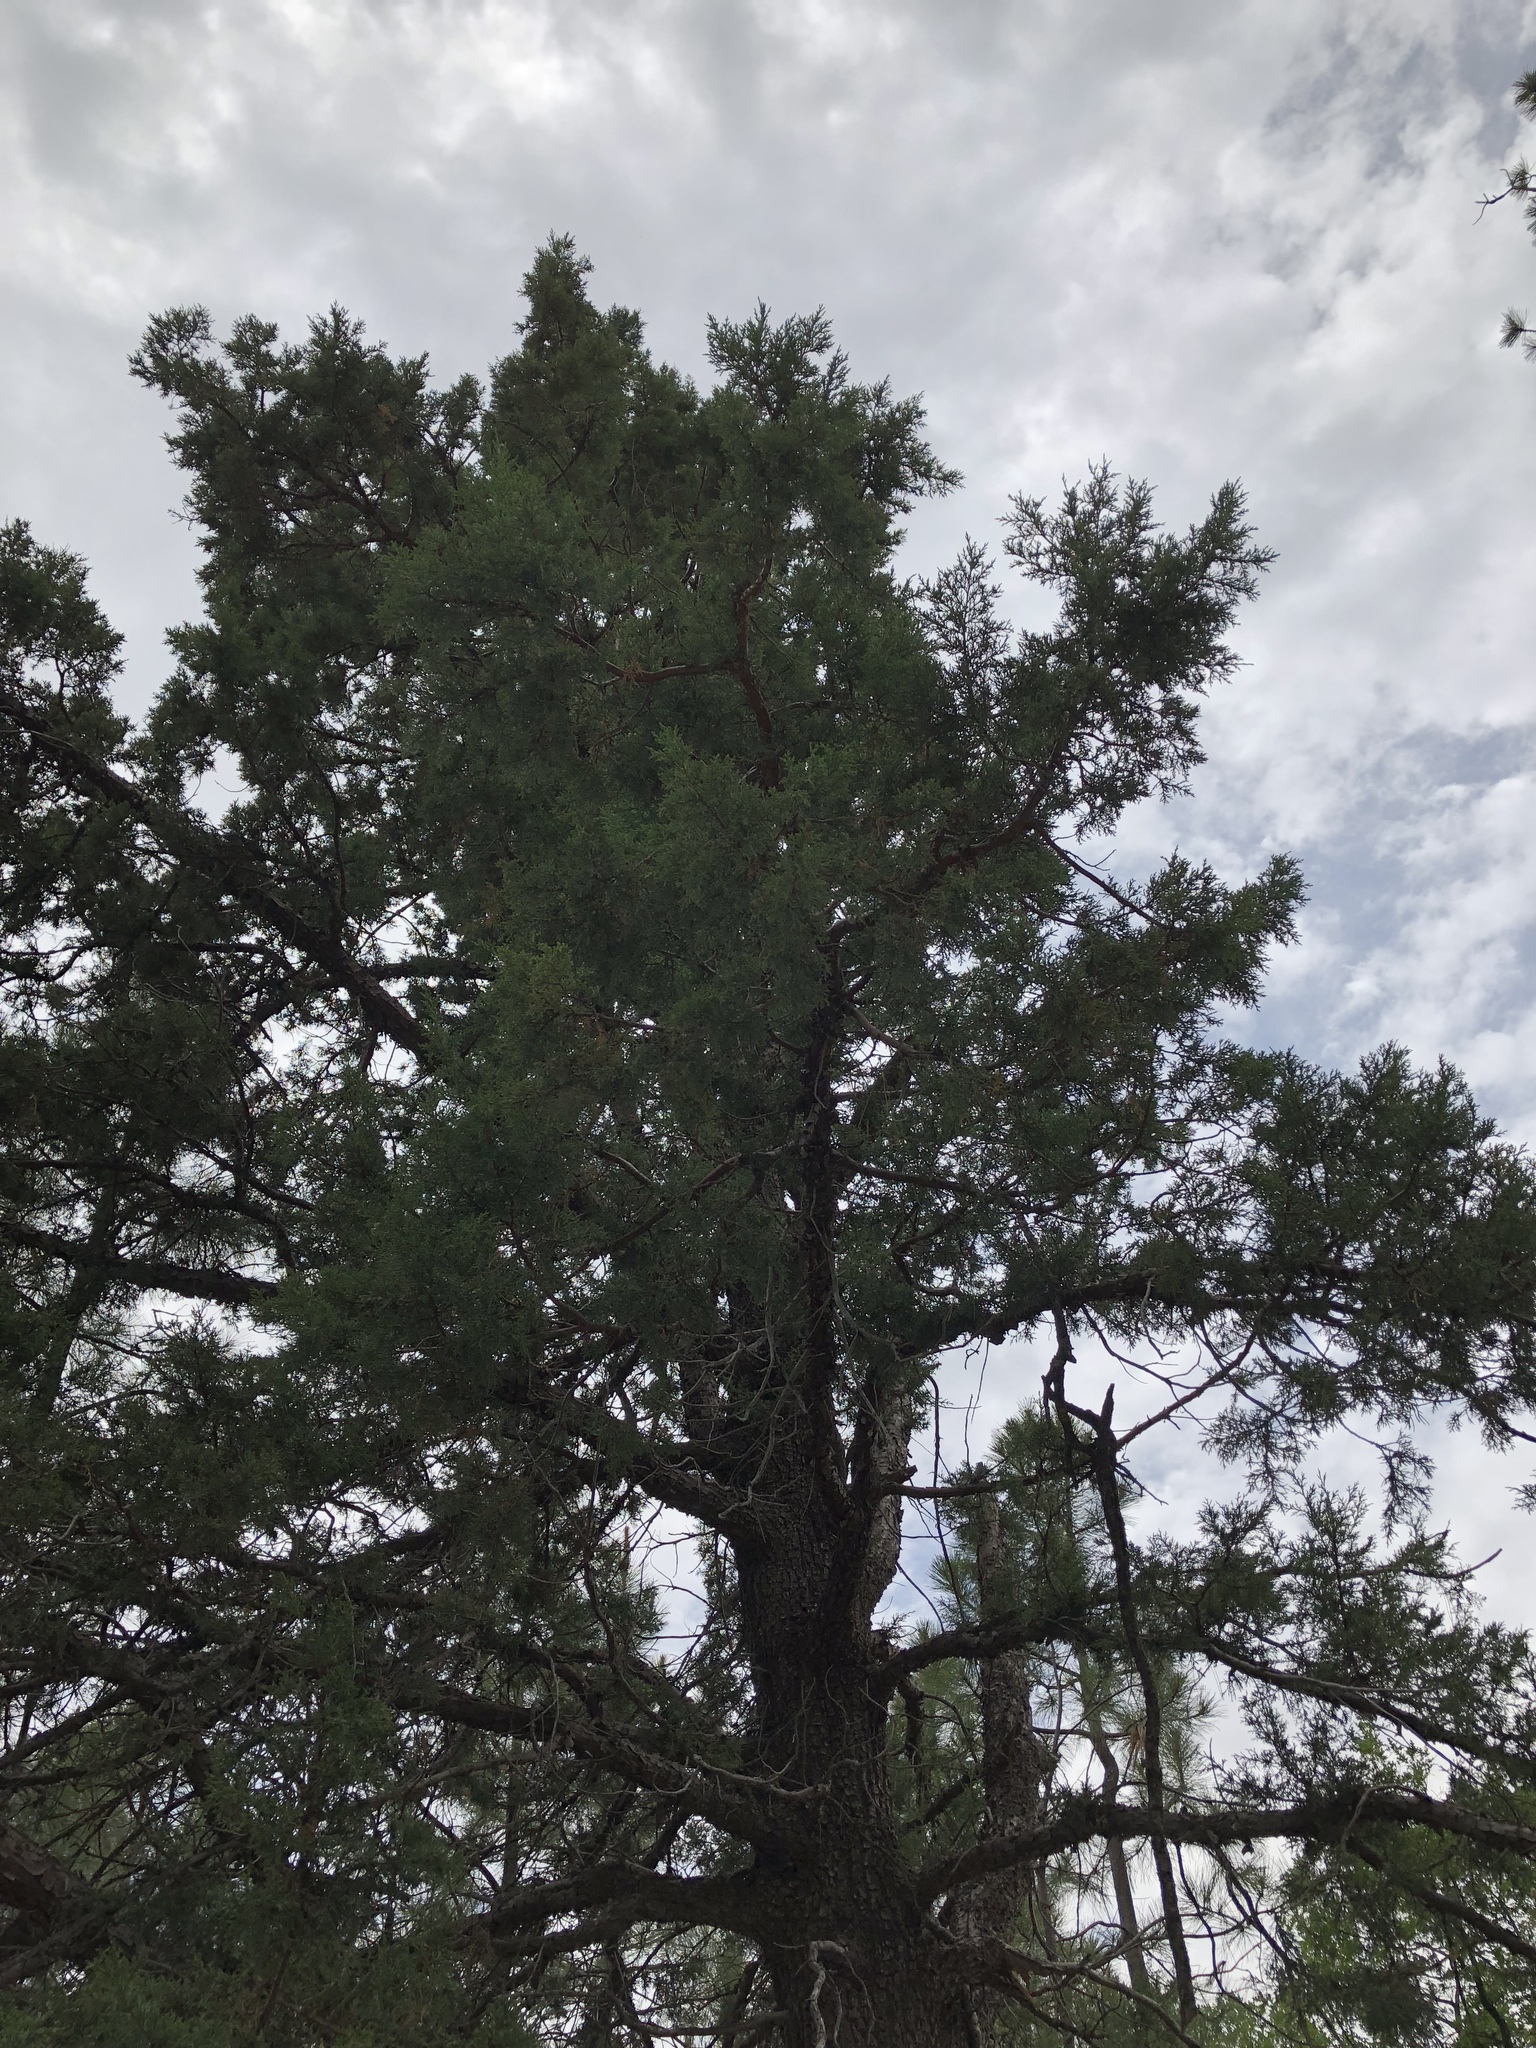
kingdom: Plantae
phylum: Tracheophyta
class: Pinopsida
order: Pinales
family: Cupressaceae
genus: Juniperus
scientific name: Juniperus deppeana
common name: Alligator juniper
